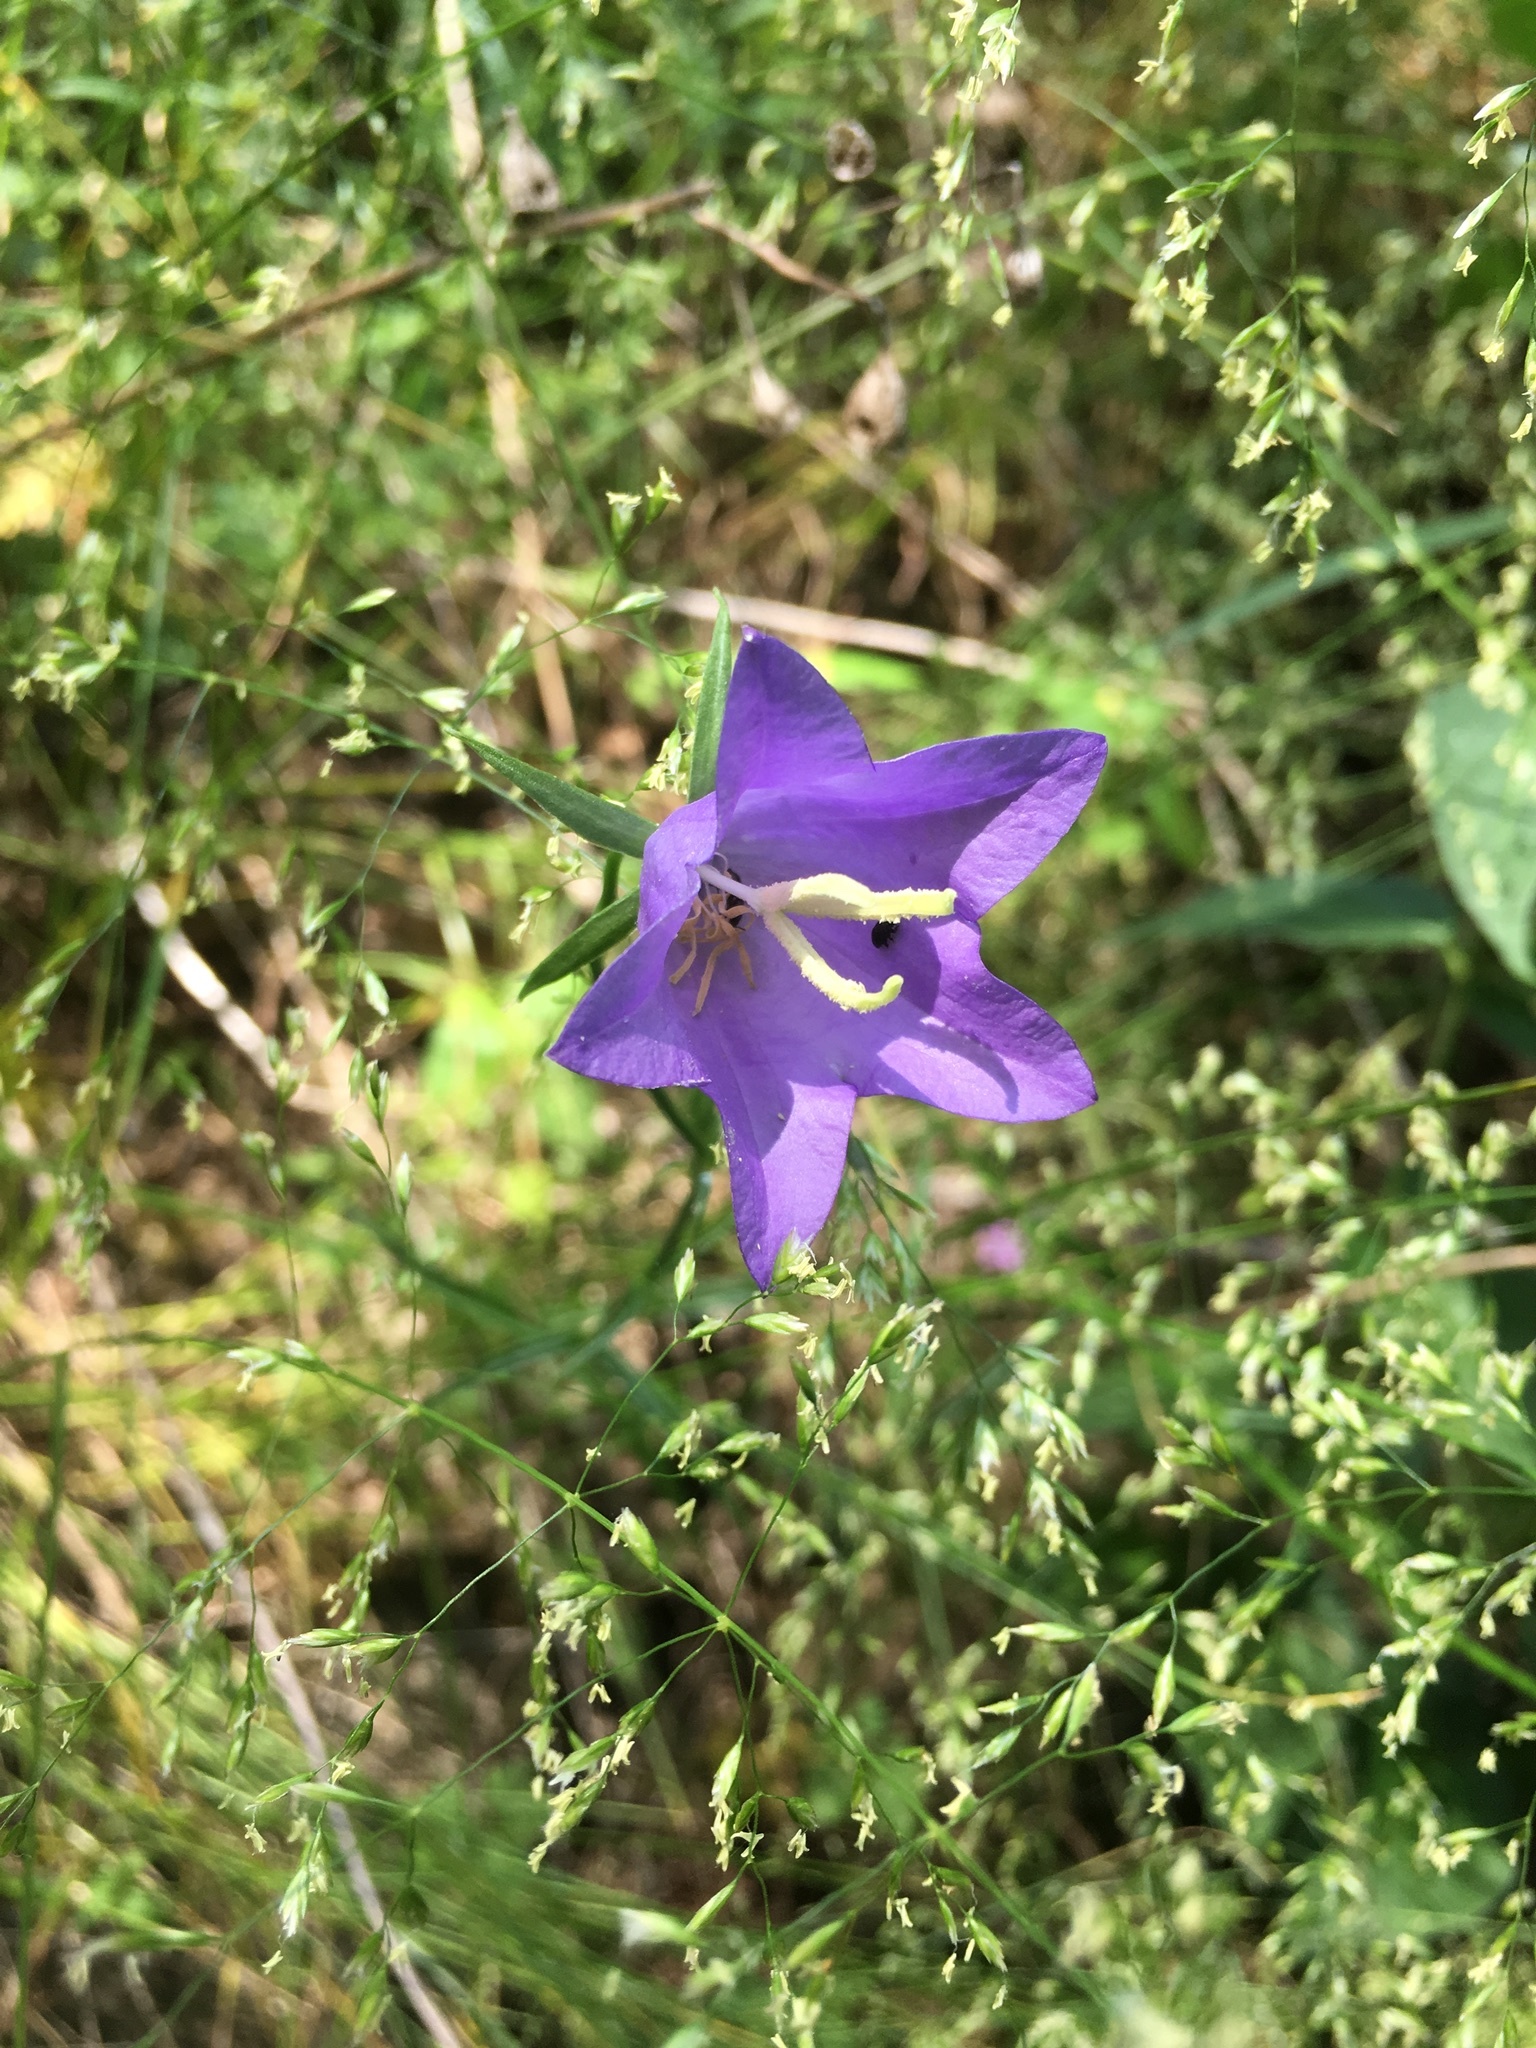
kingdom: Plantae
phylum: Tracheophyta
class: Magnoliopsida
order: Asterales
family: Campanulaceae
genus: Campanula
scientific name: Campanula persicifolia
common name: Peach-leaved bellflower
